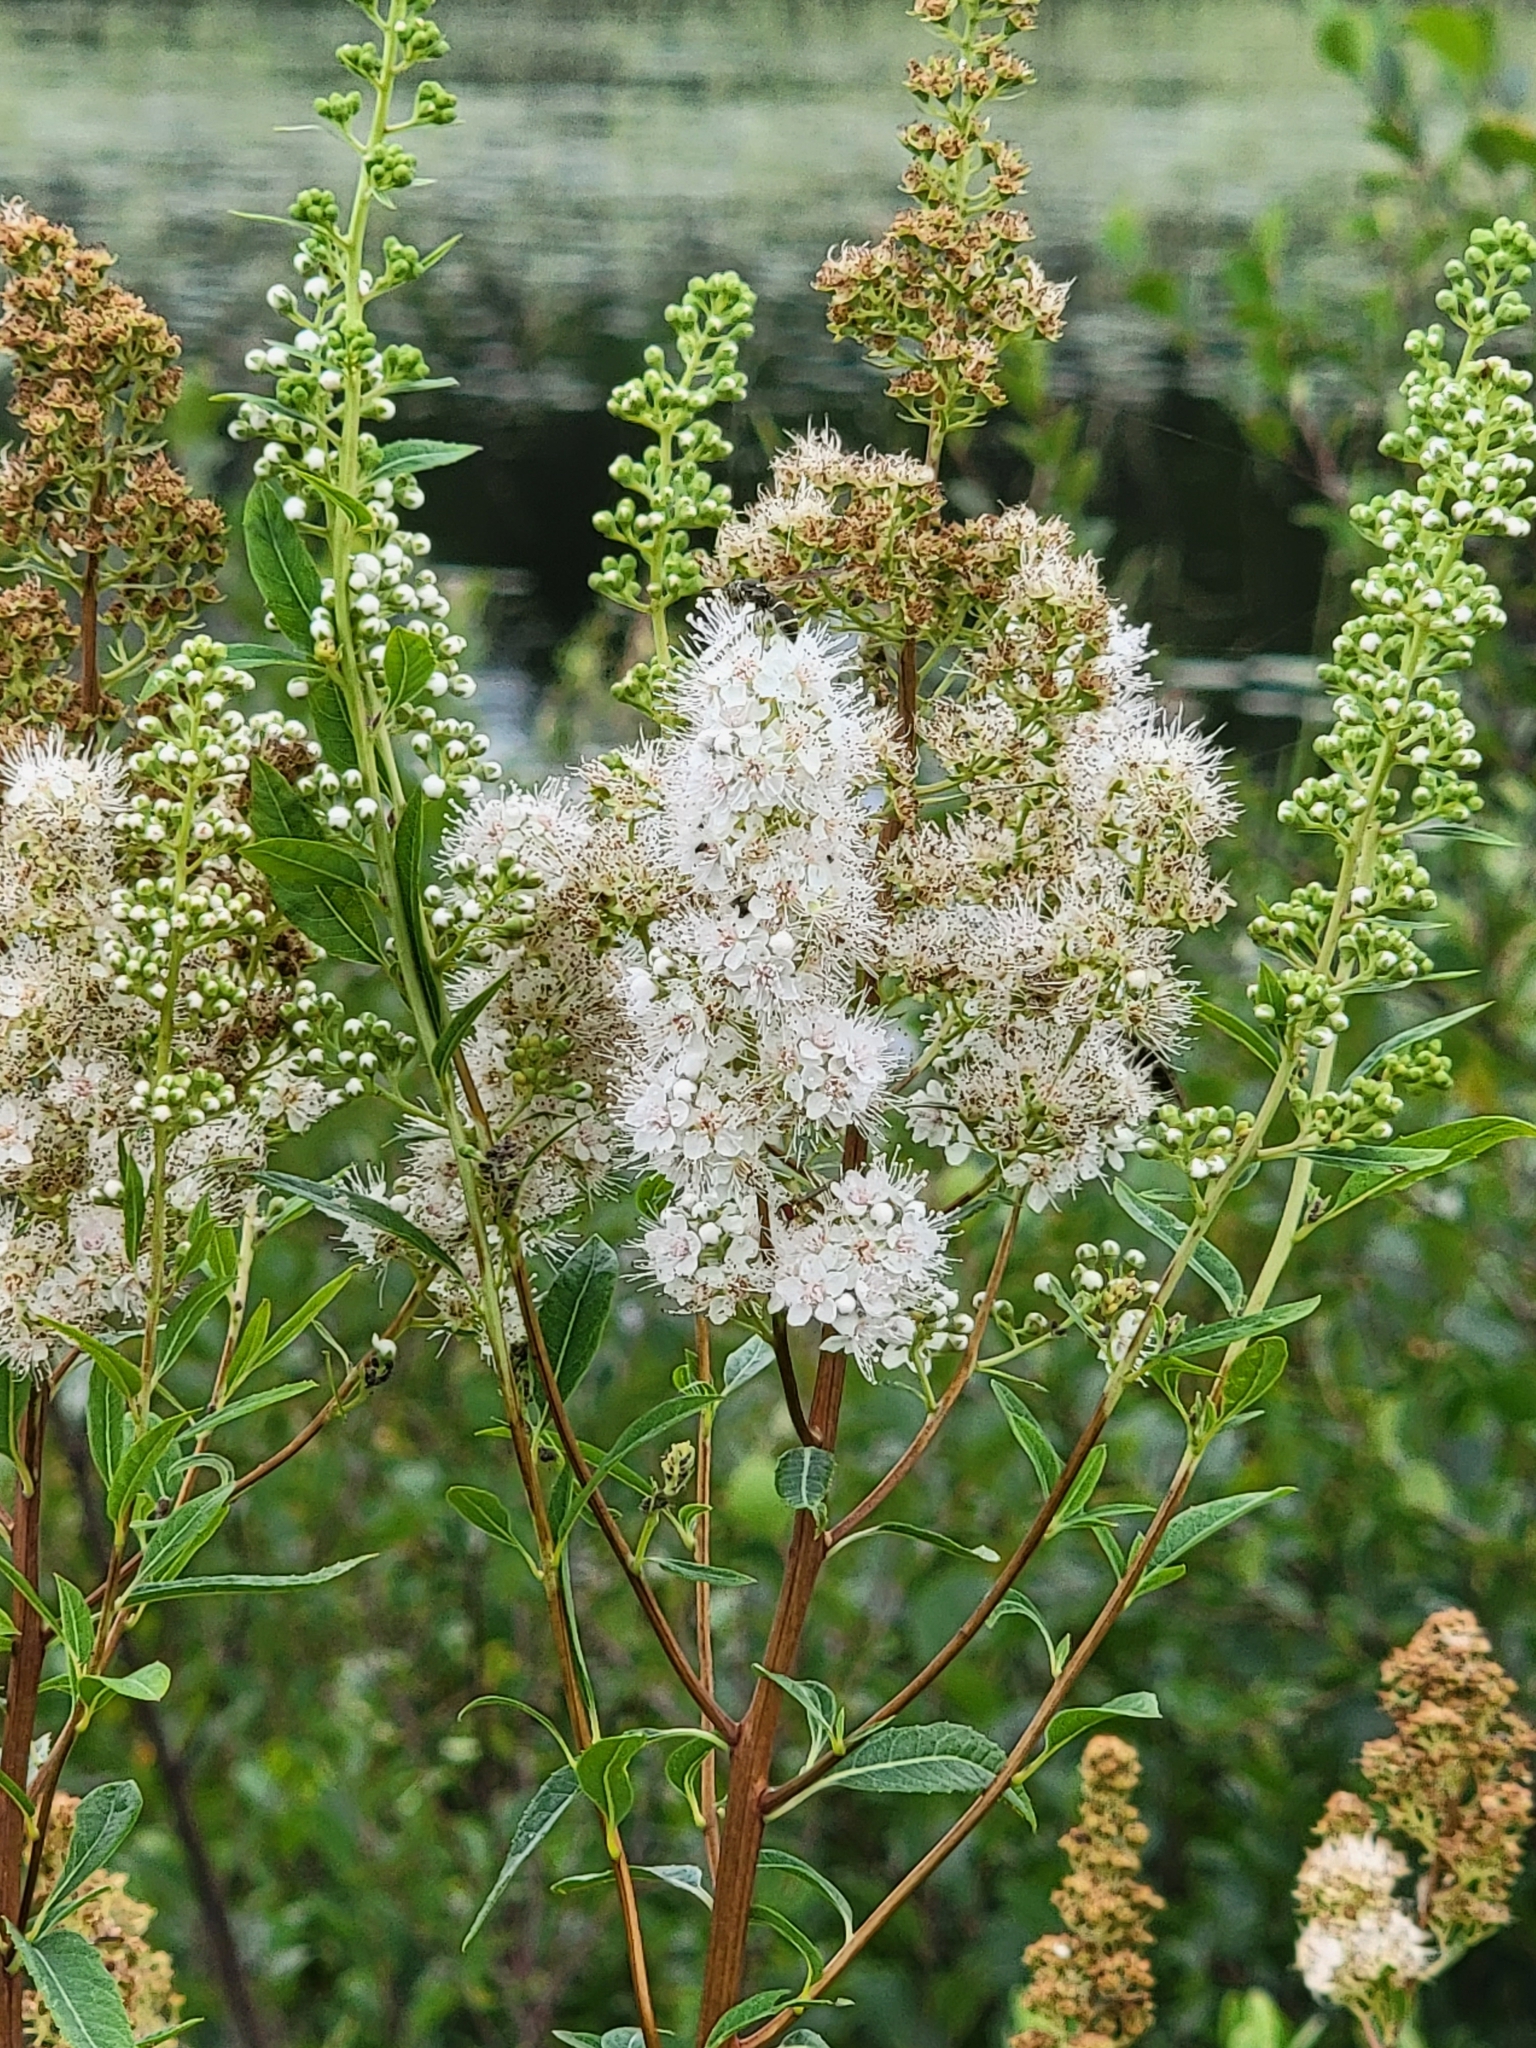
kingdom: Plantae
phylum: Tracheophyta
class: Magnoliopsida
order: Rosales
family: Rosaceae
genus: Spiraea
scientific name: Spiraea alba
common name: Pale bridewort
